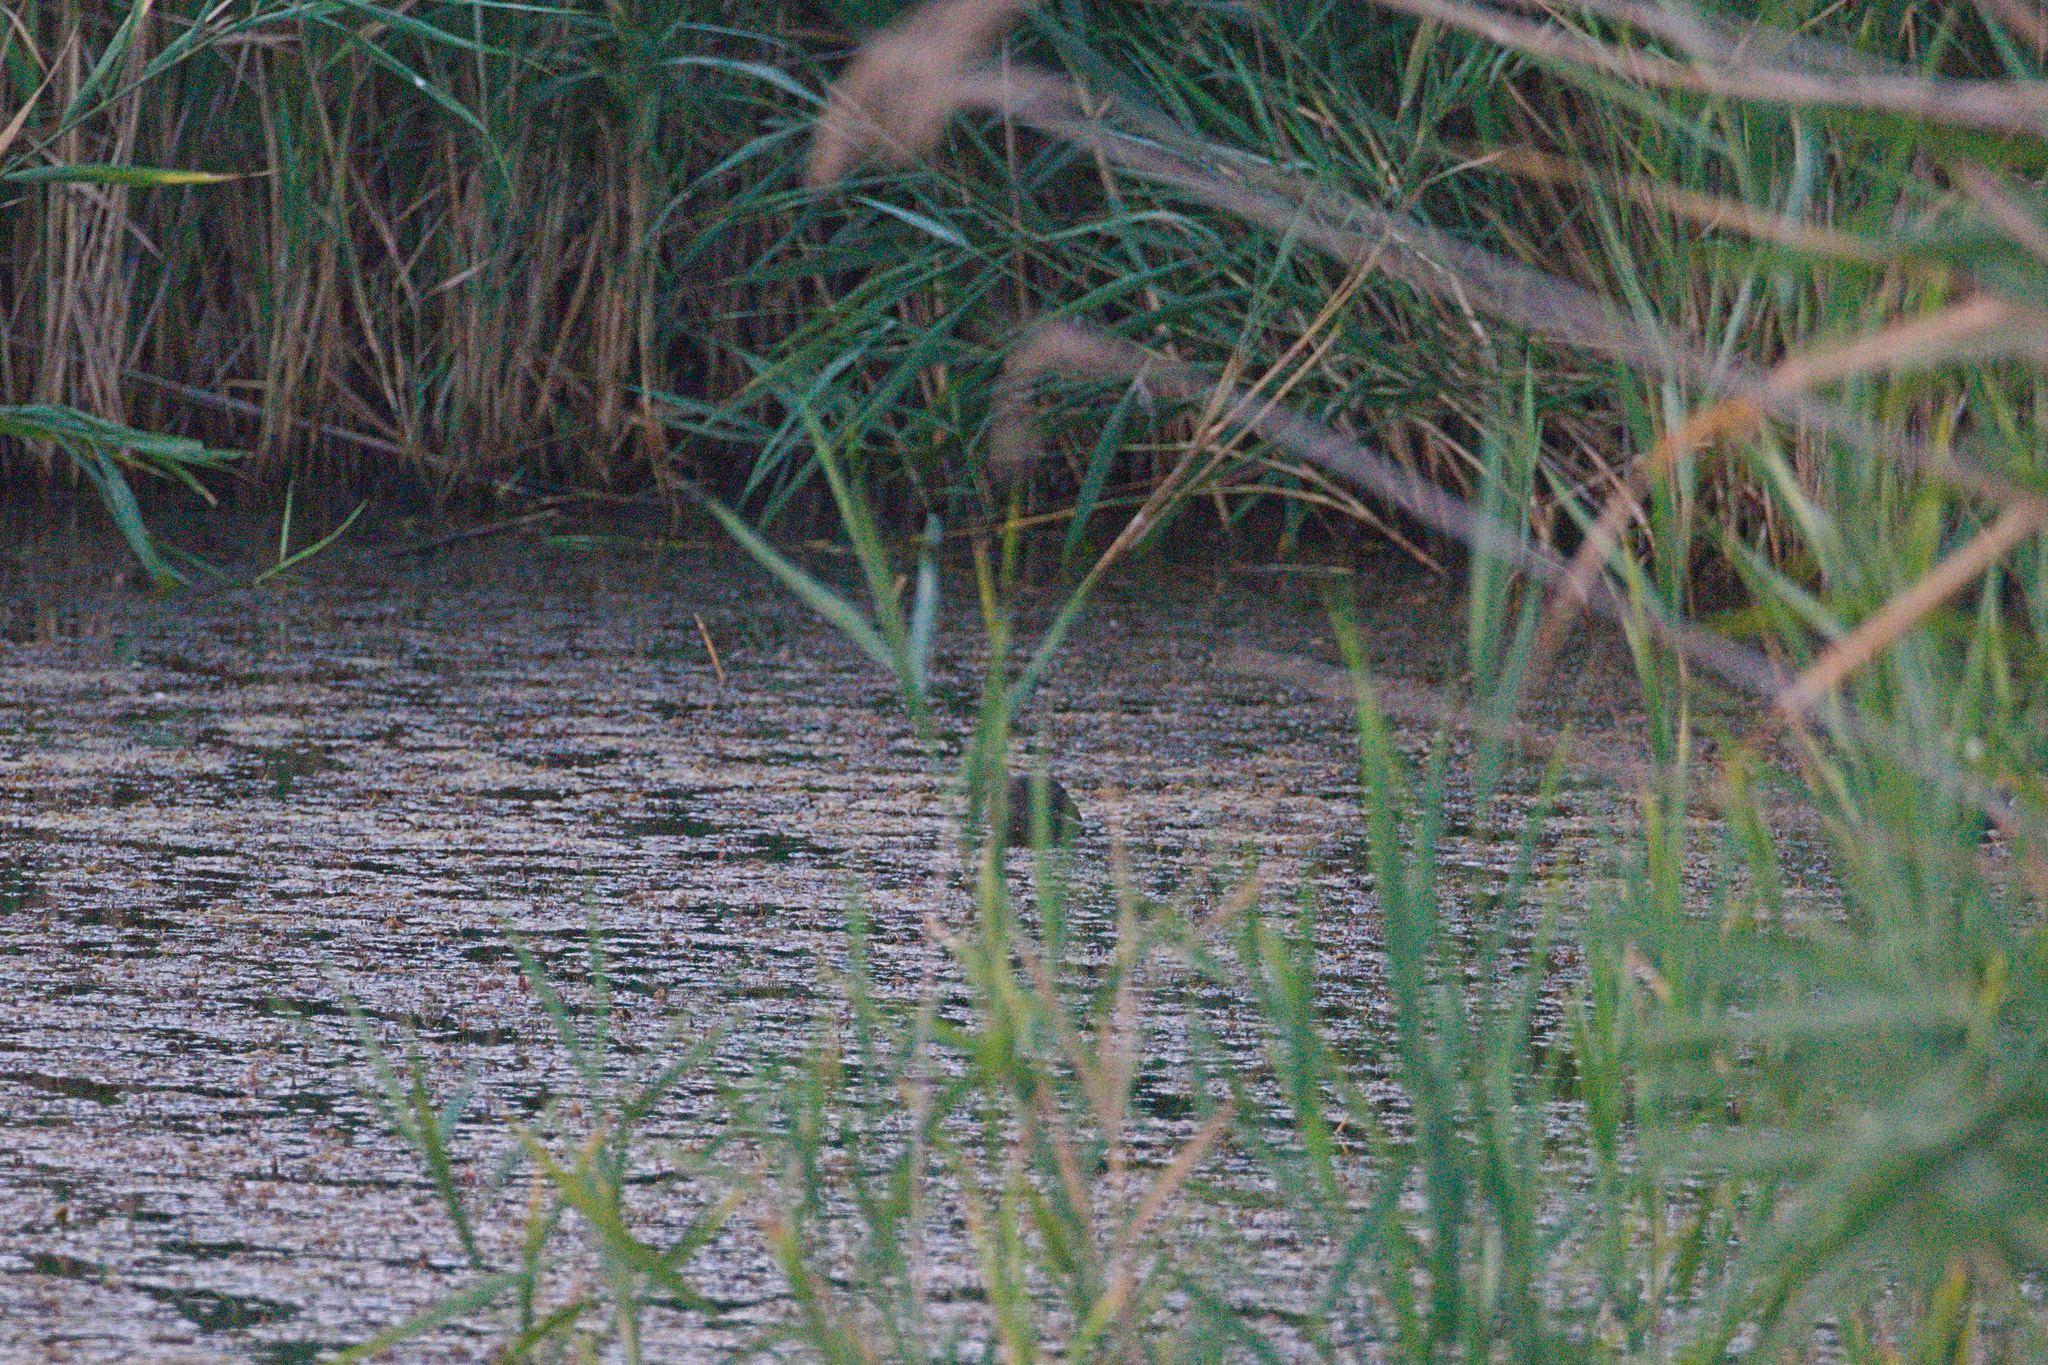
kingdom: Animalia
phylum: Chordata
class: Aves
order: Gruiformes
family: Rallidae
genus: Gallinula
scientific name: Gallinula chloropus
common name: Common moorhen
